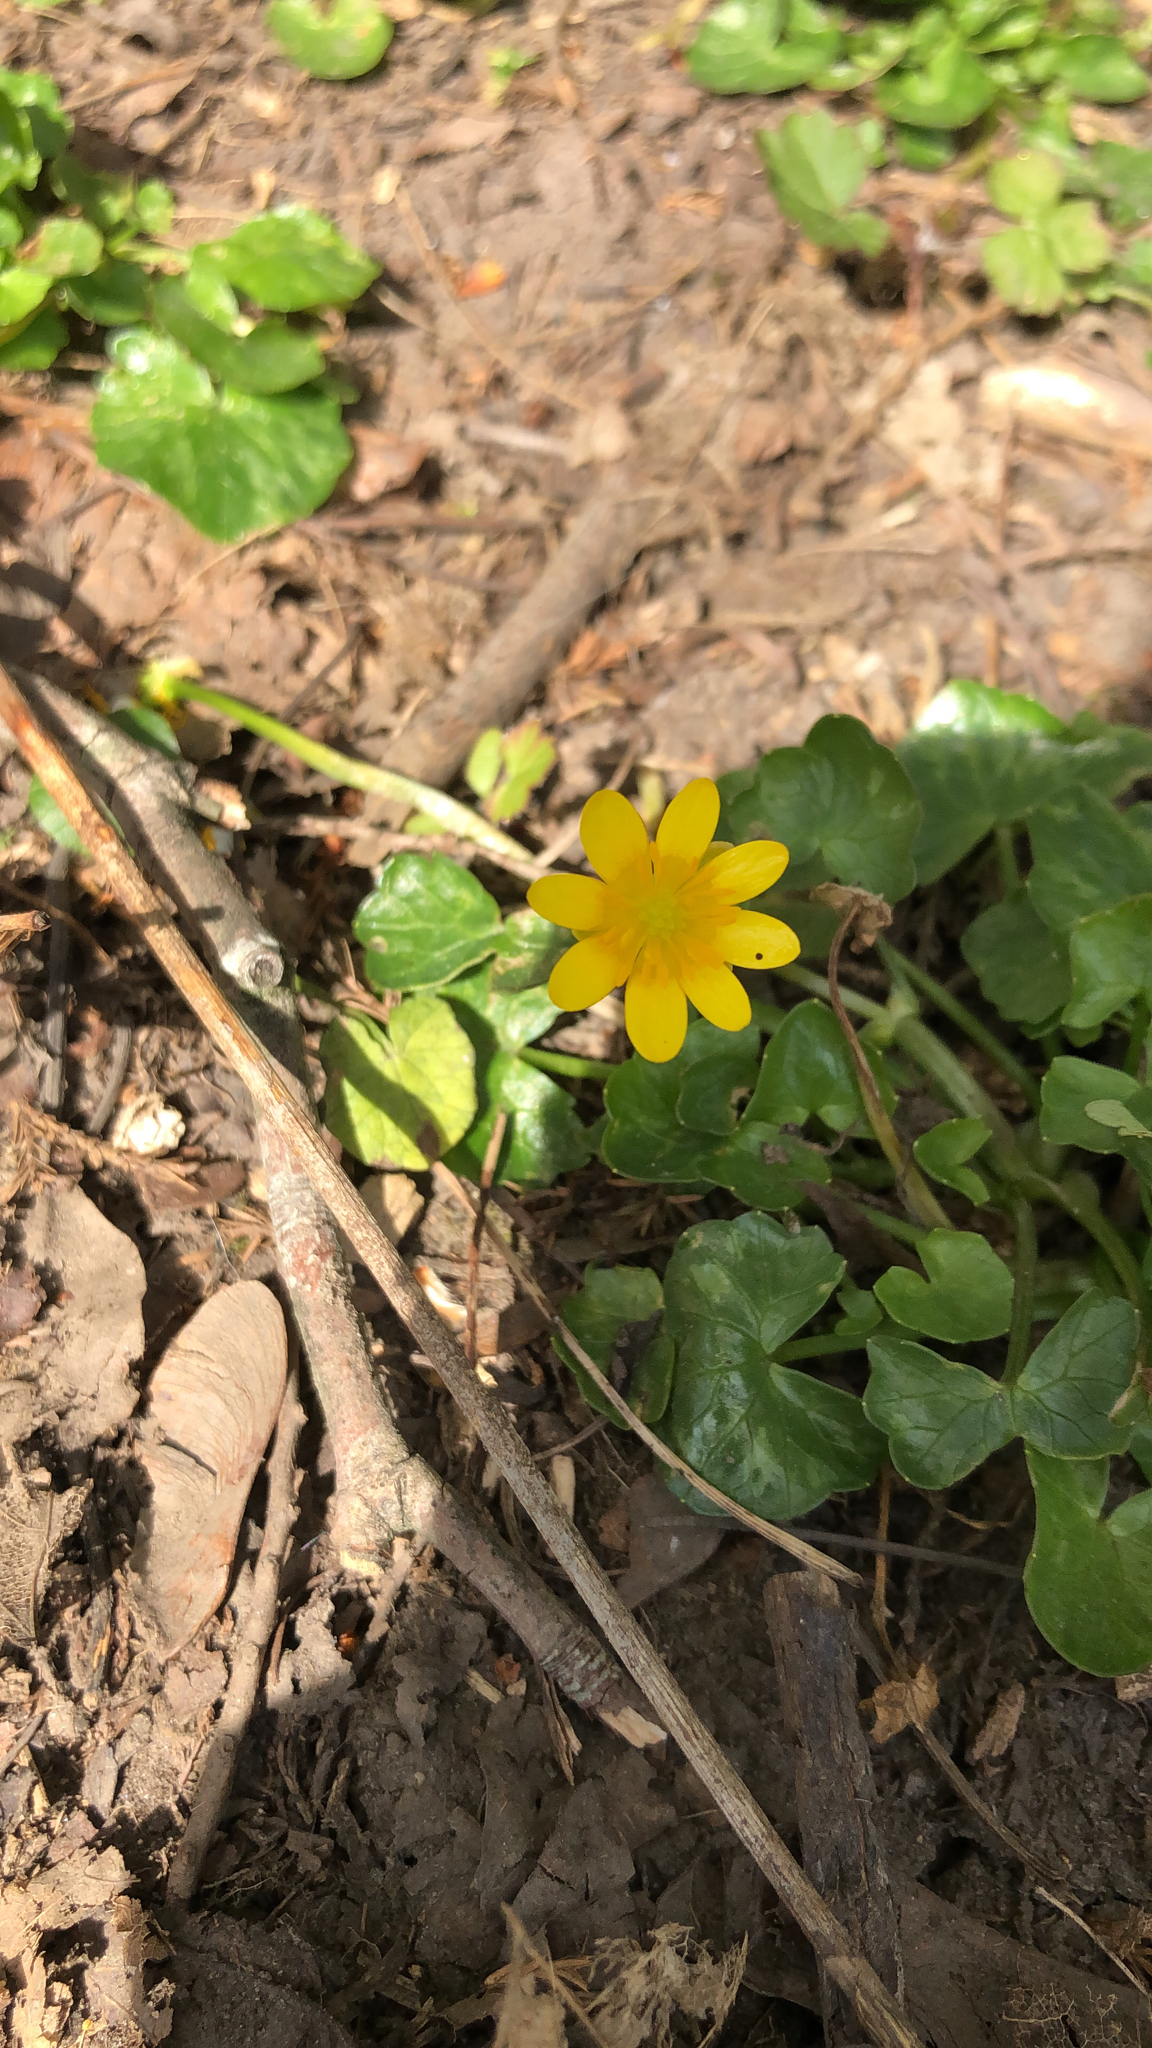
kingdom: Plantae
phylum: Tracheophyta
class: Magnoliopsida
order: Ranunculales
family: Ranunculaceae
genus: Ficaria
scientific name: Ficaria verna
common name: Lesser celandine
